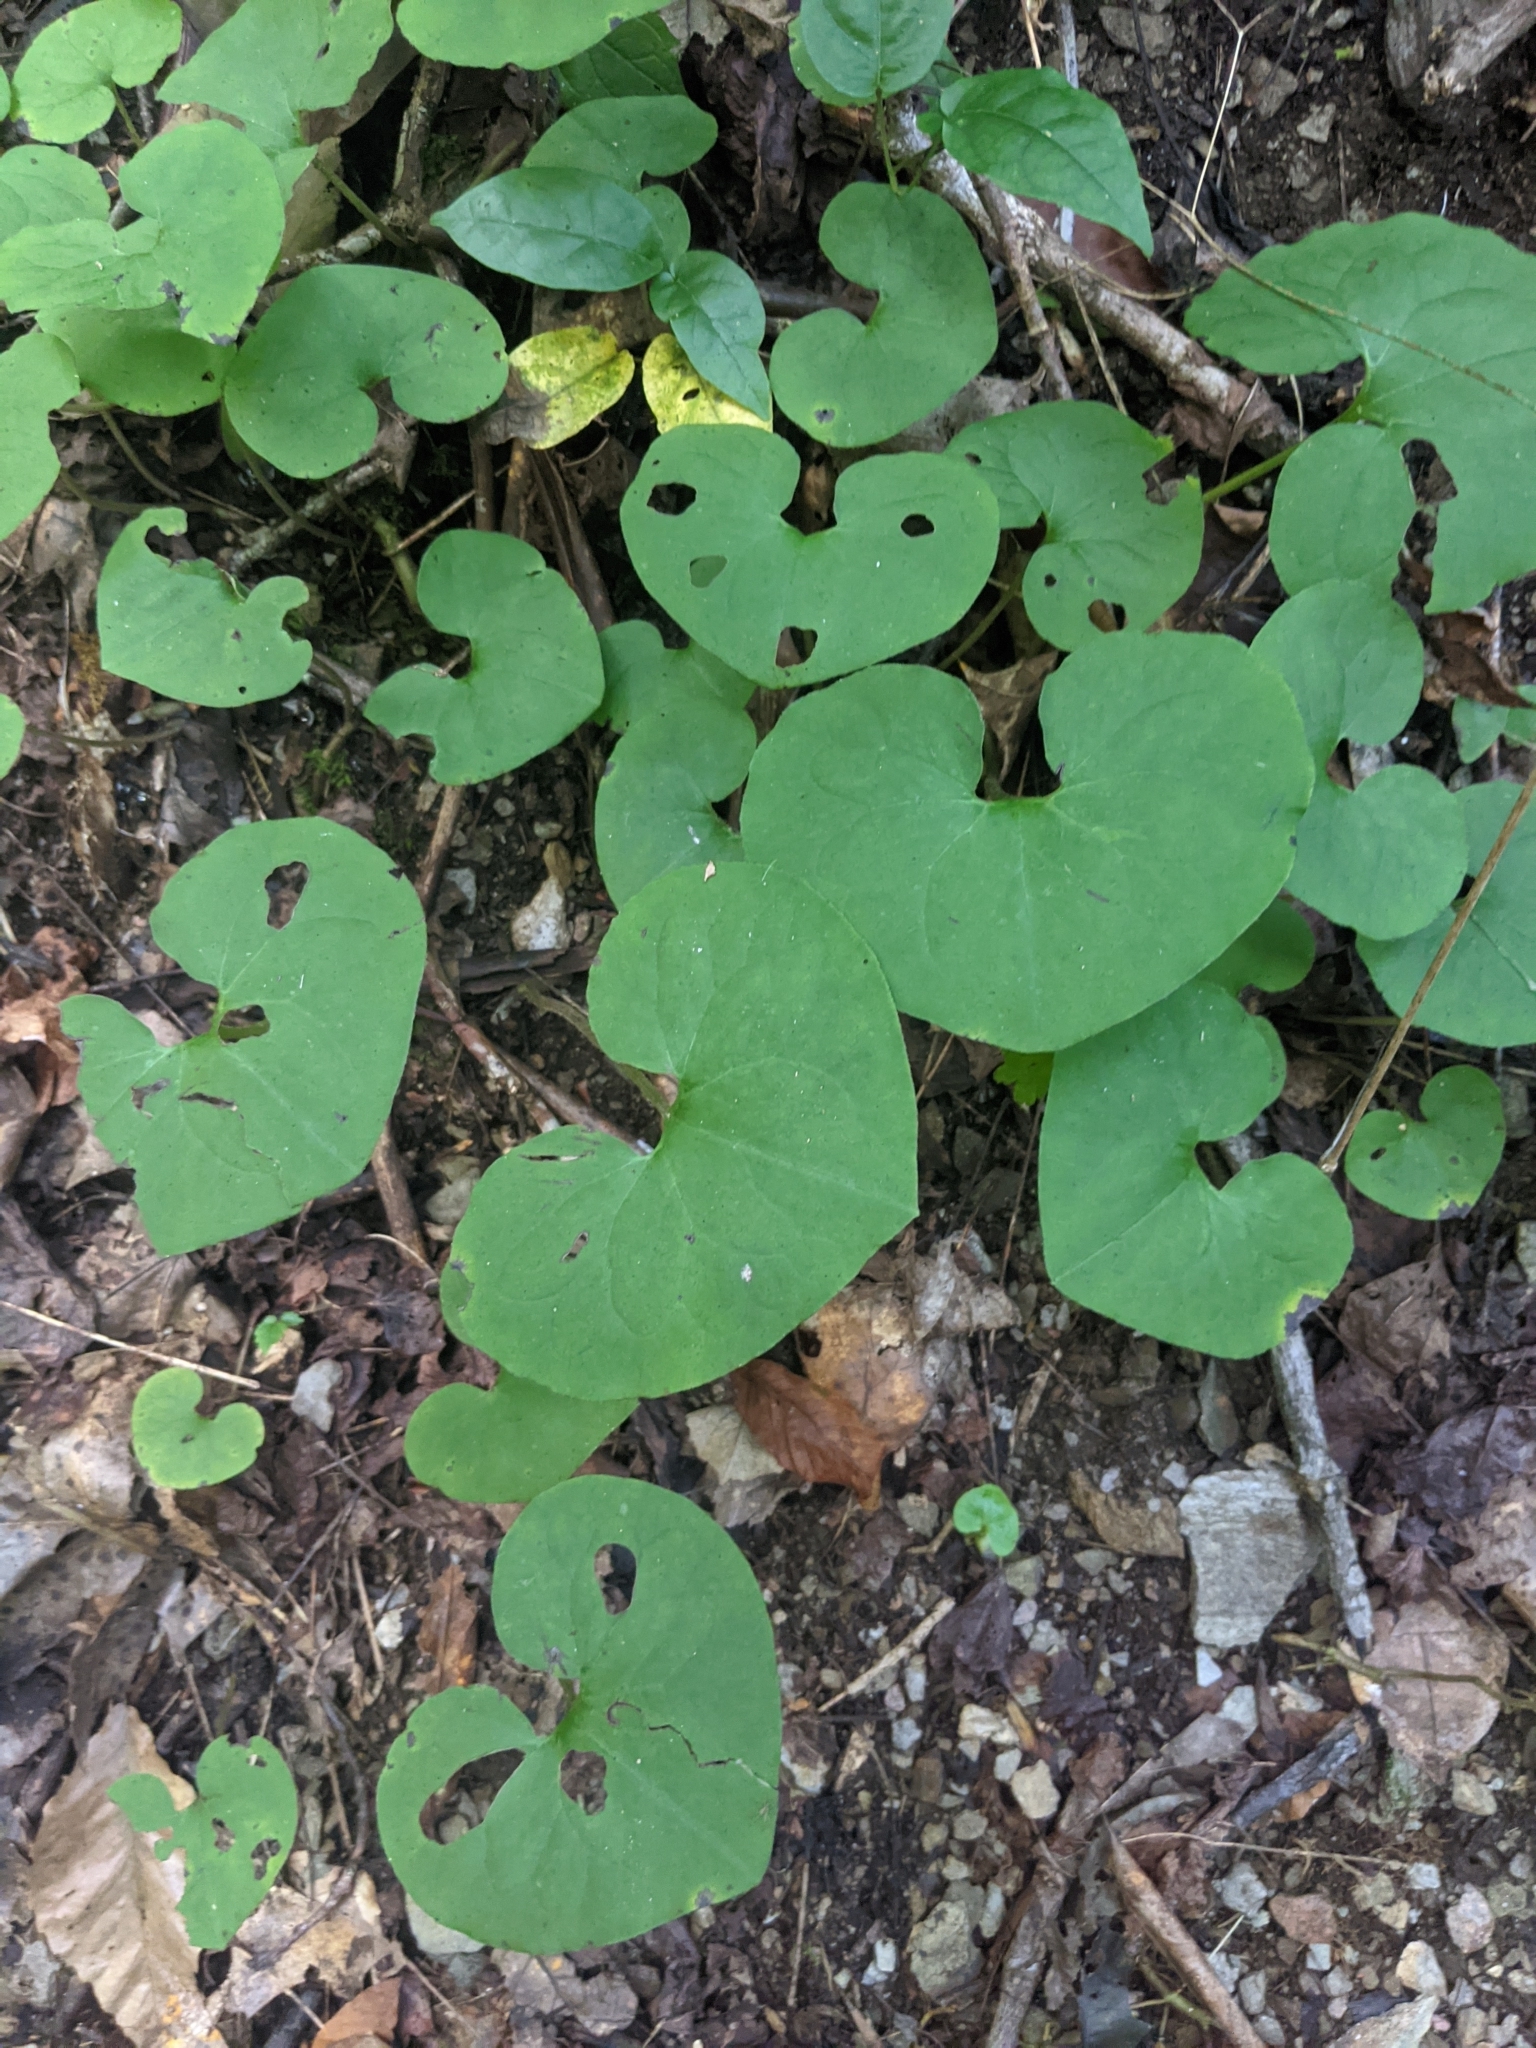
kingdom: Plantae
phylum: Tracheophyta
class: Magnoliopsida
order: Piperales
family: Aristolochiaceae
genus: Asarum
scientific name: Asarum canadense
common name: Wild ginger
